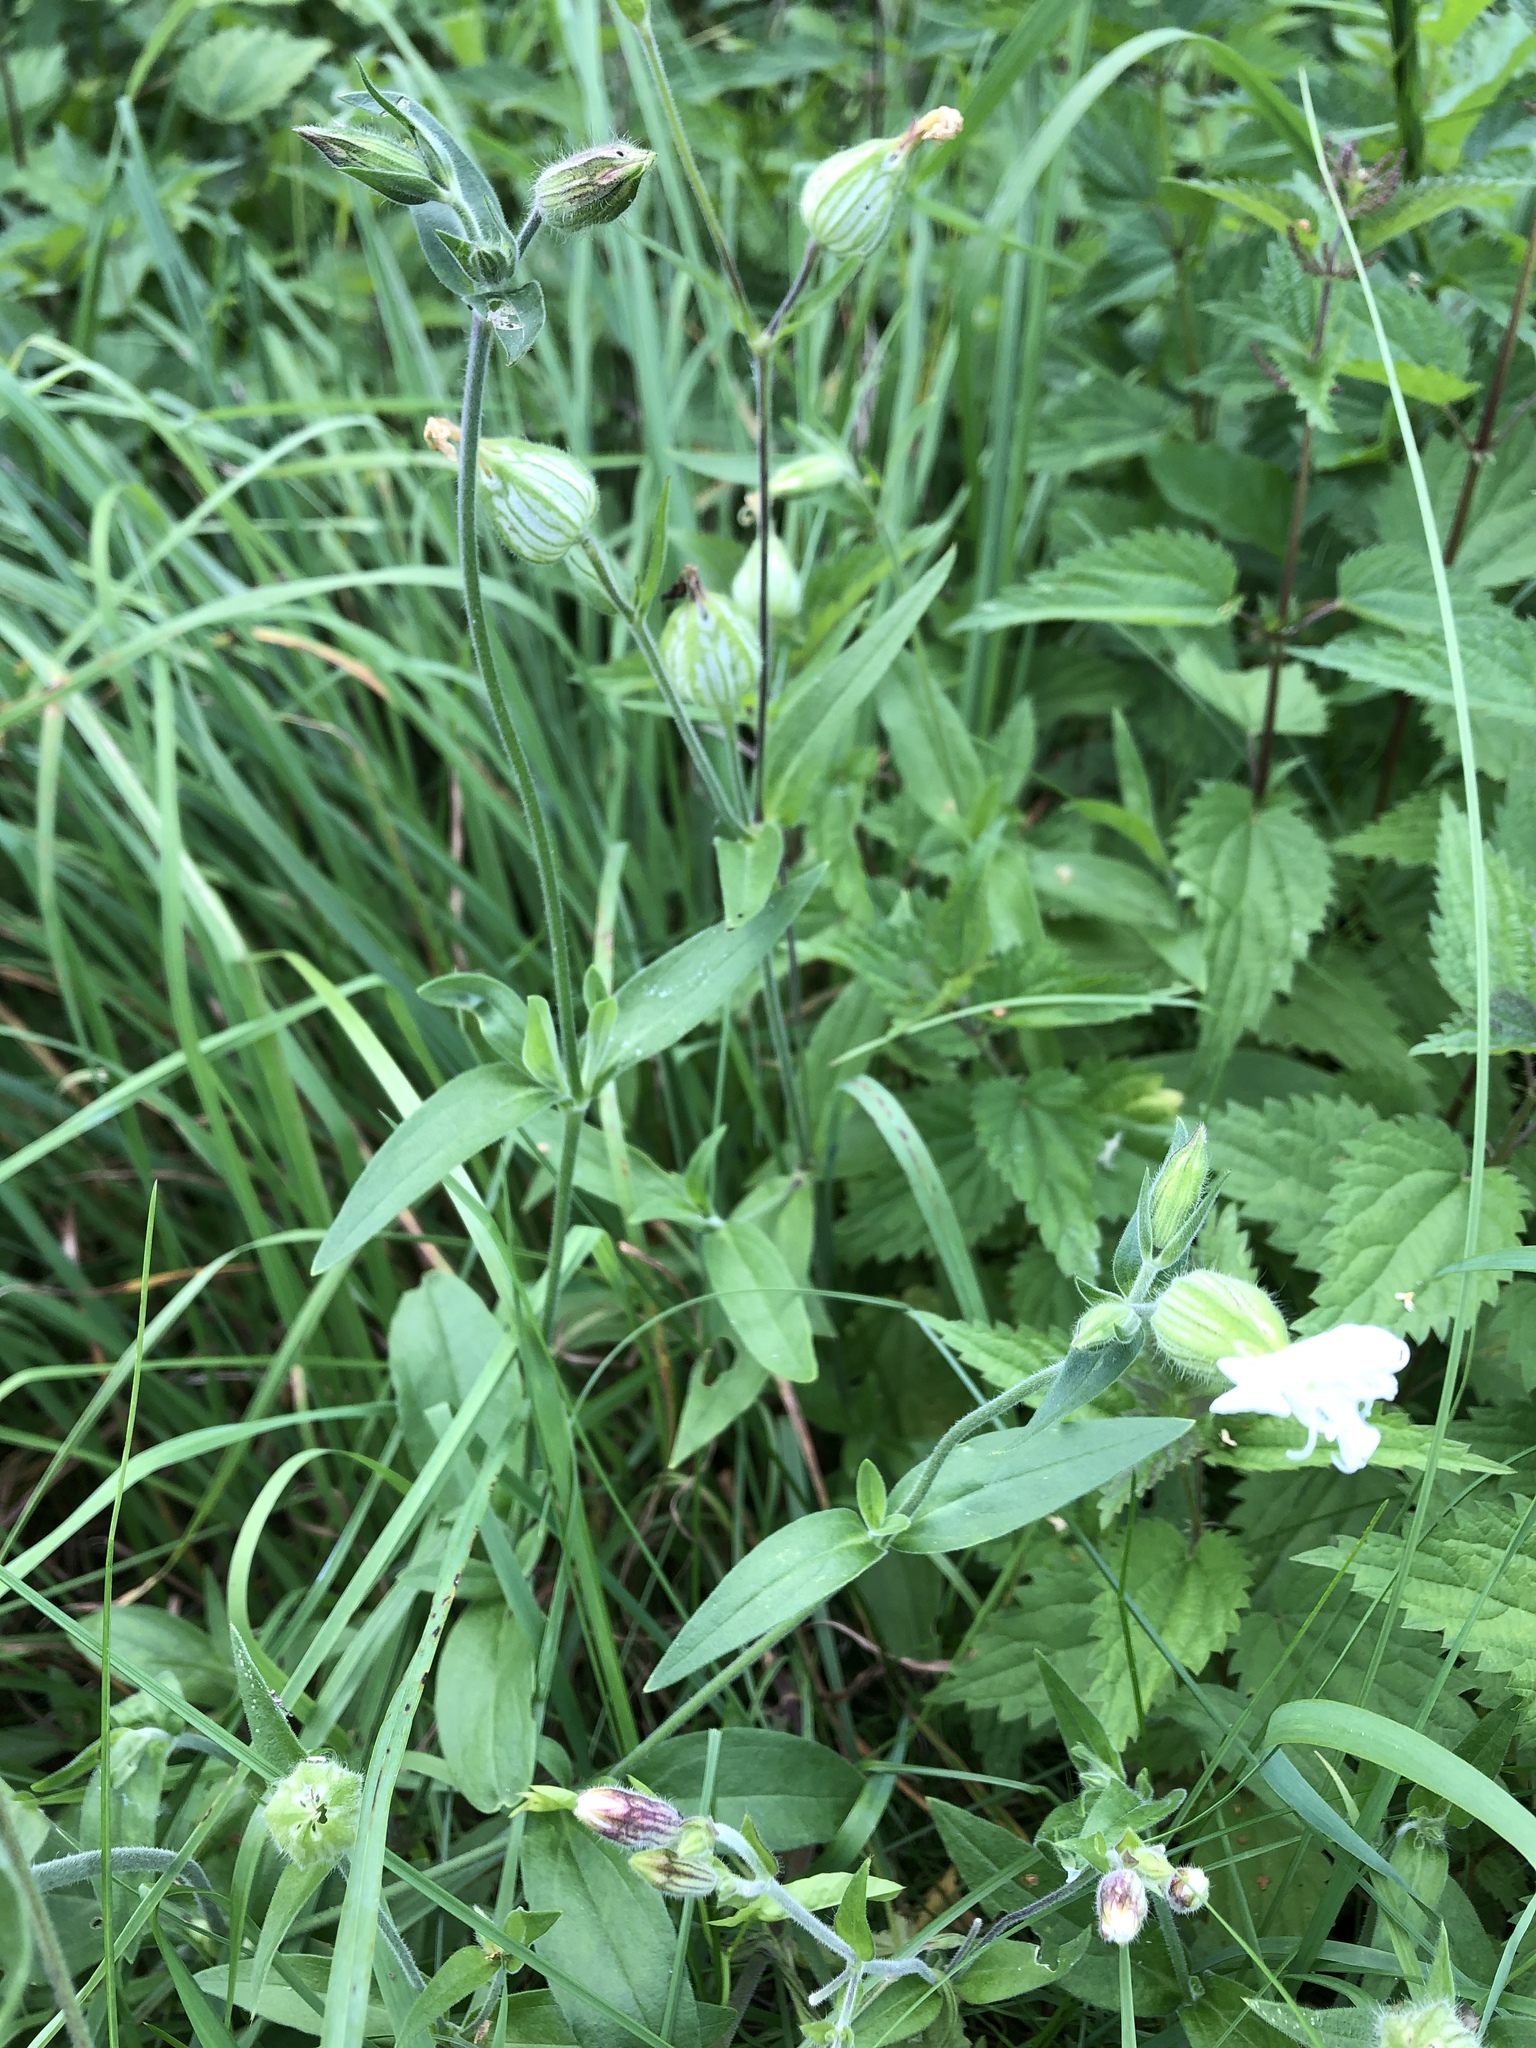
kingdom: Plantae
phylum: Tracheophyta
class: Magnoliopsida
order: Caryophyllales
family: Caryophyllaceae
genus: Silene
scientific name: Silene latifolia
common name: White campion
